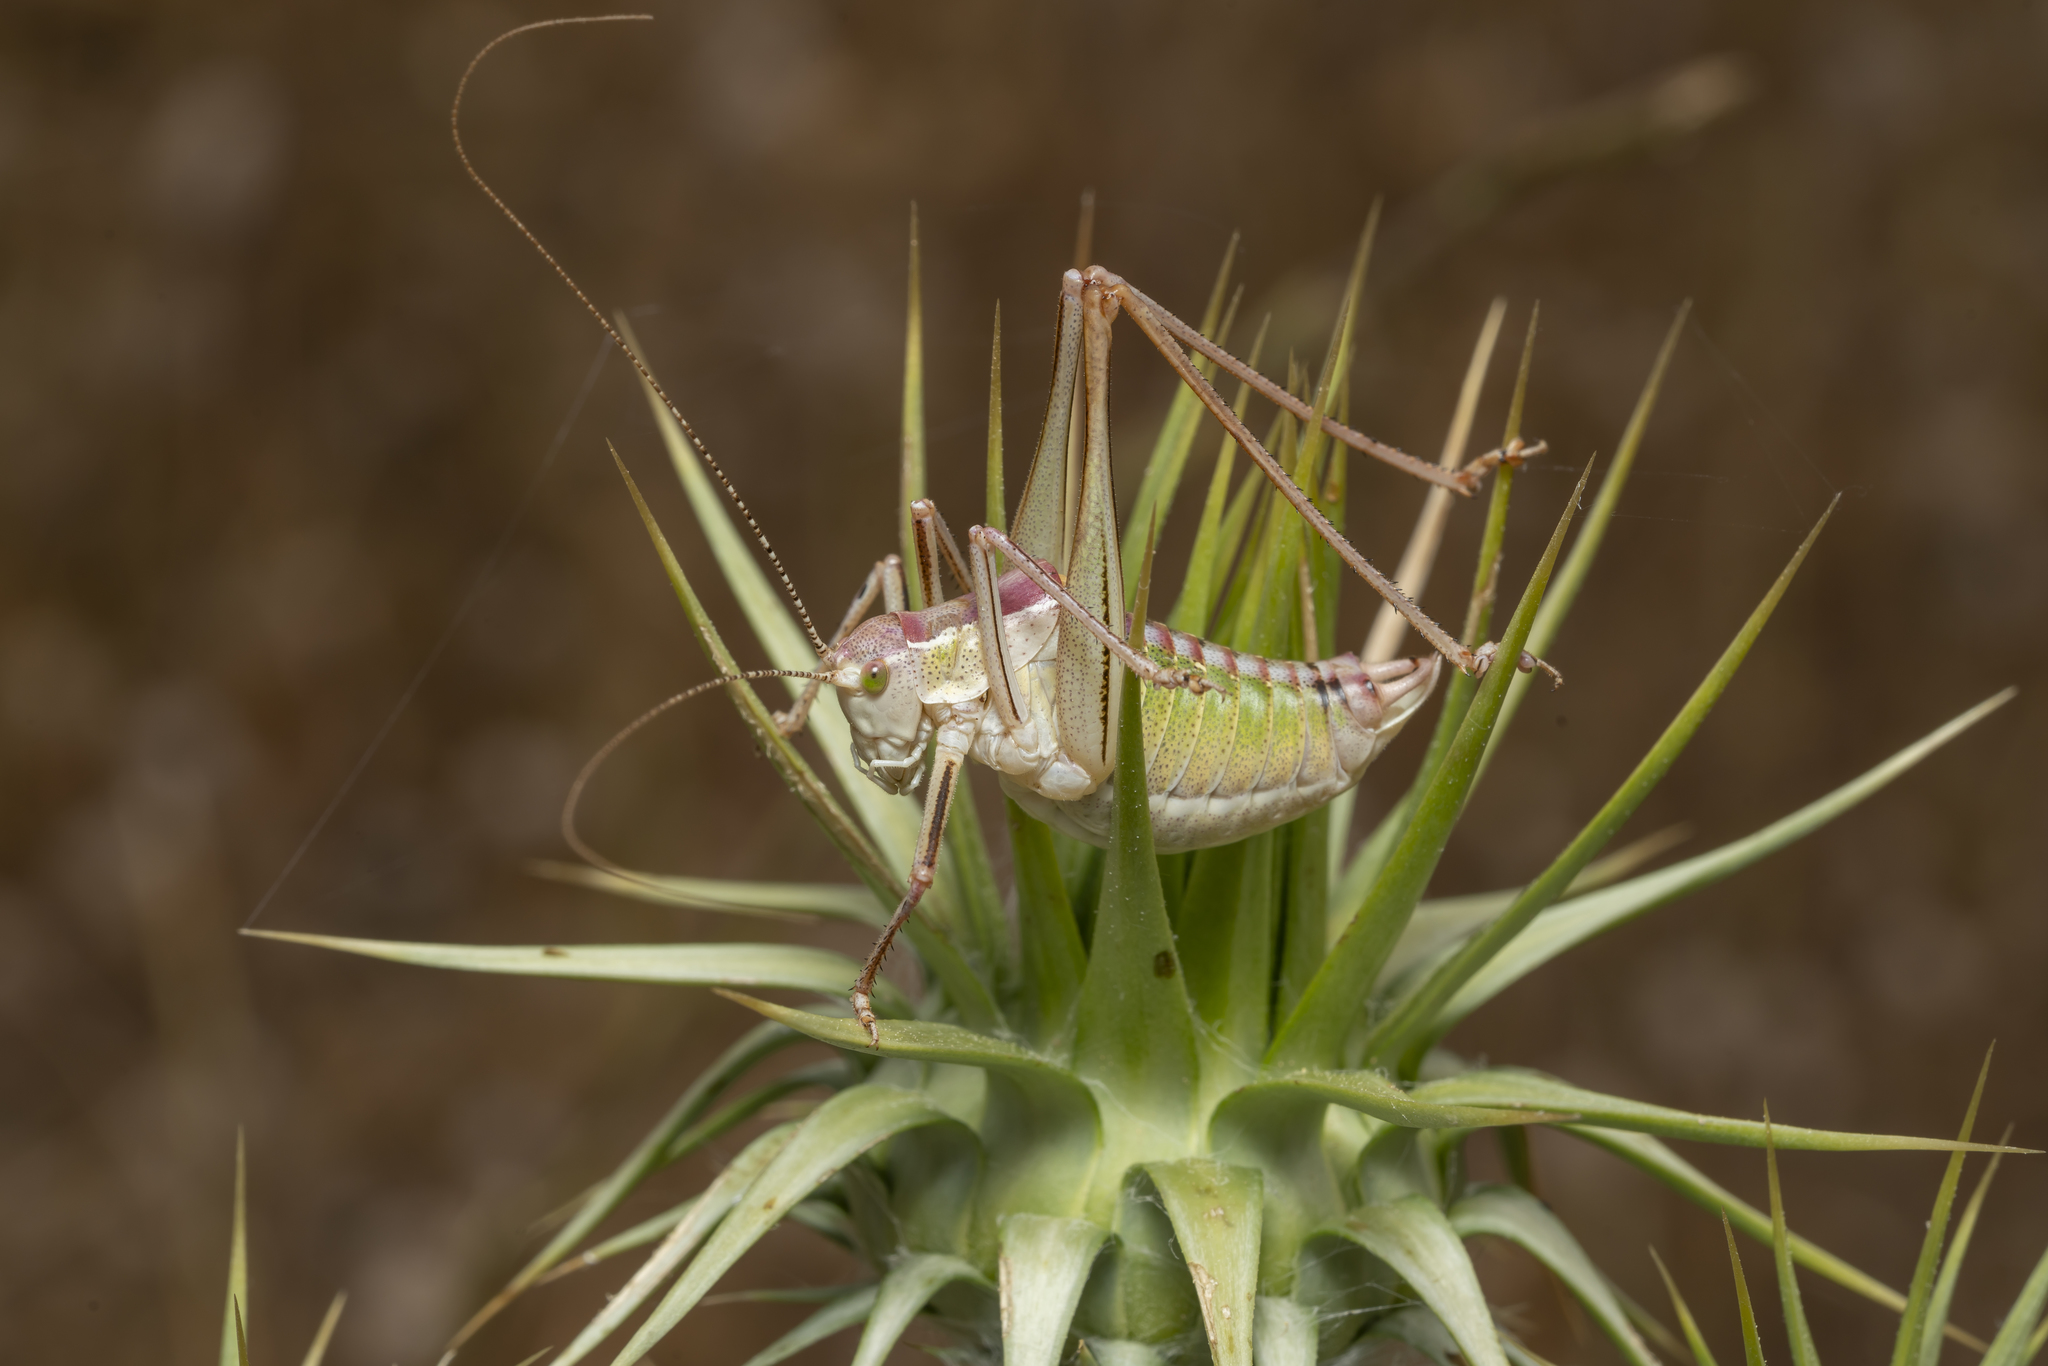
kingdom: Animalia
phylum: Arthropoda
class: Insecta
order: Orthoptera
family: Tettigoniidae
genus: Poecilimon
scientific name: Poecilimon sanctipauli
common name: Saint-paul's bright bush-cricket
